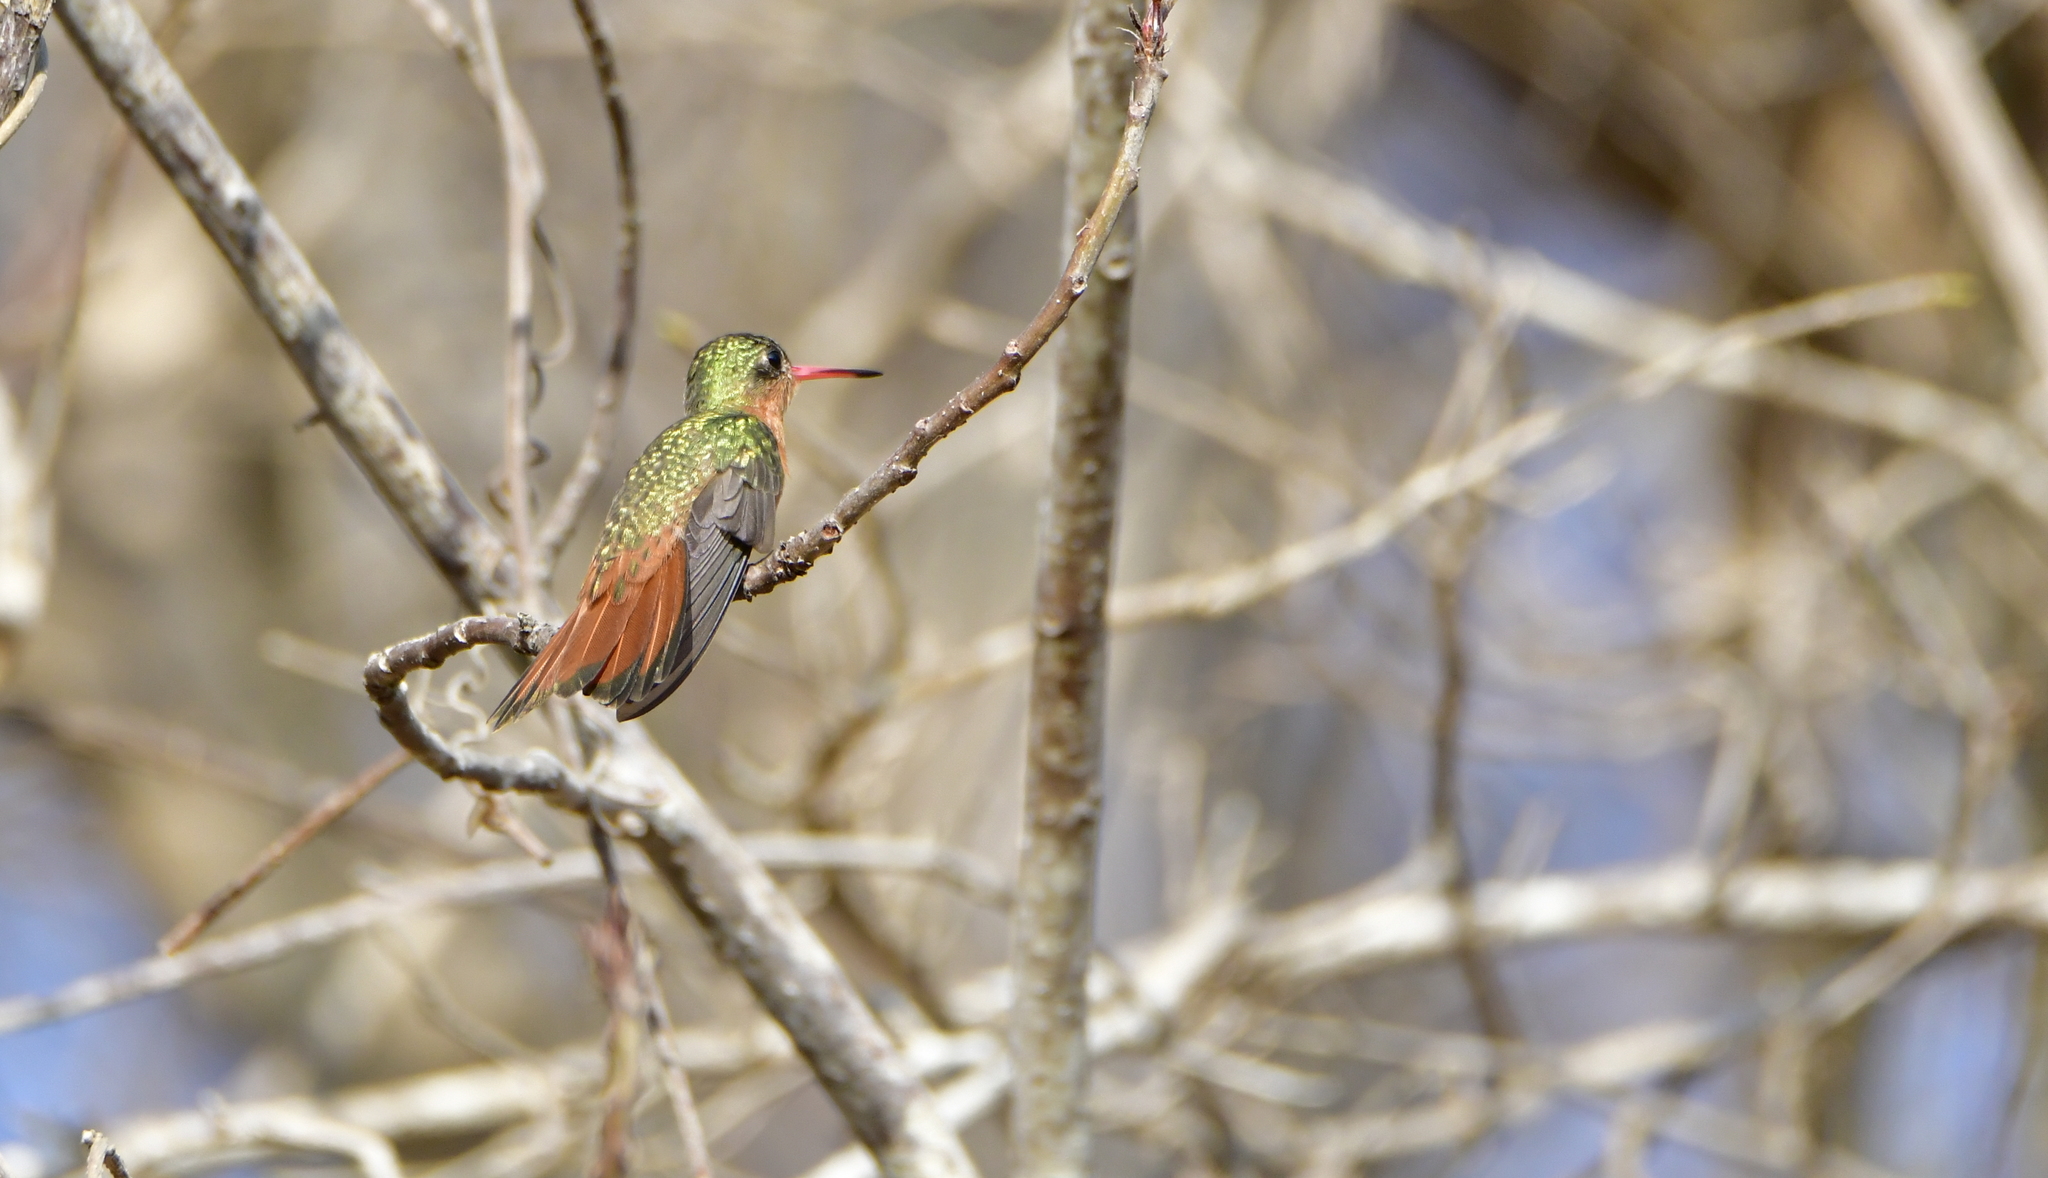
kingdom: Animalia
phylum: Chordata
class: Aves
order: Apodiformes
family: Trochilidae
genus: Amazilia
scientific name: Amazilia rutila
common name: Cinnamon hummingbird
